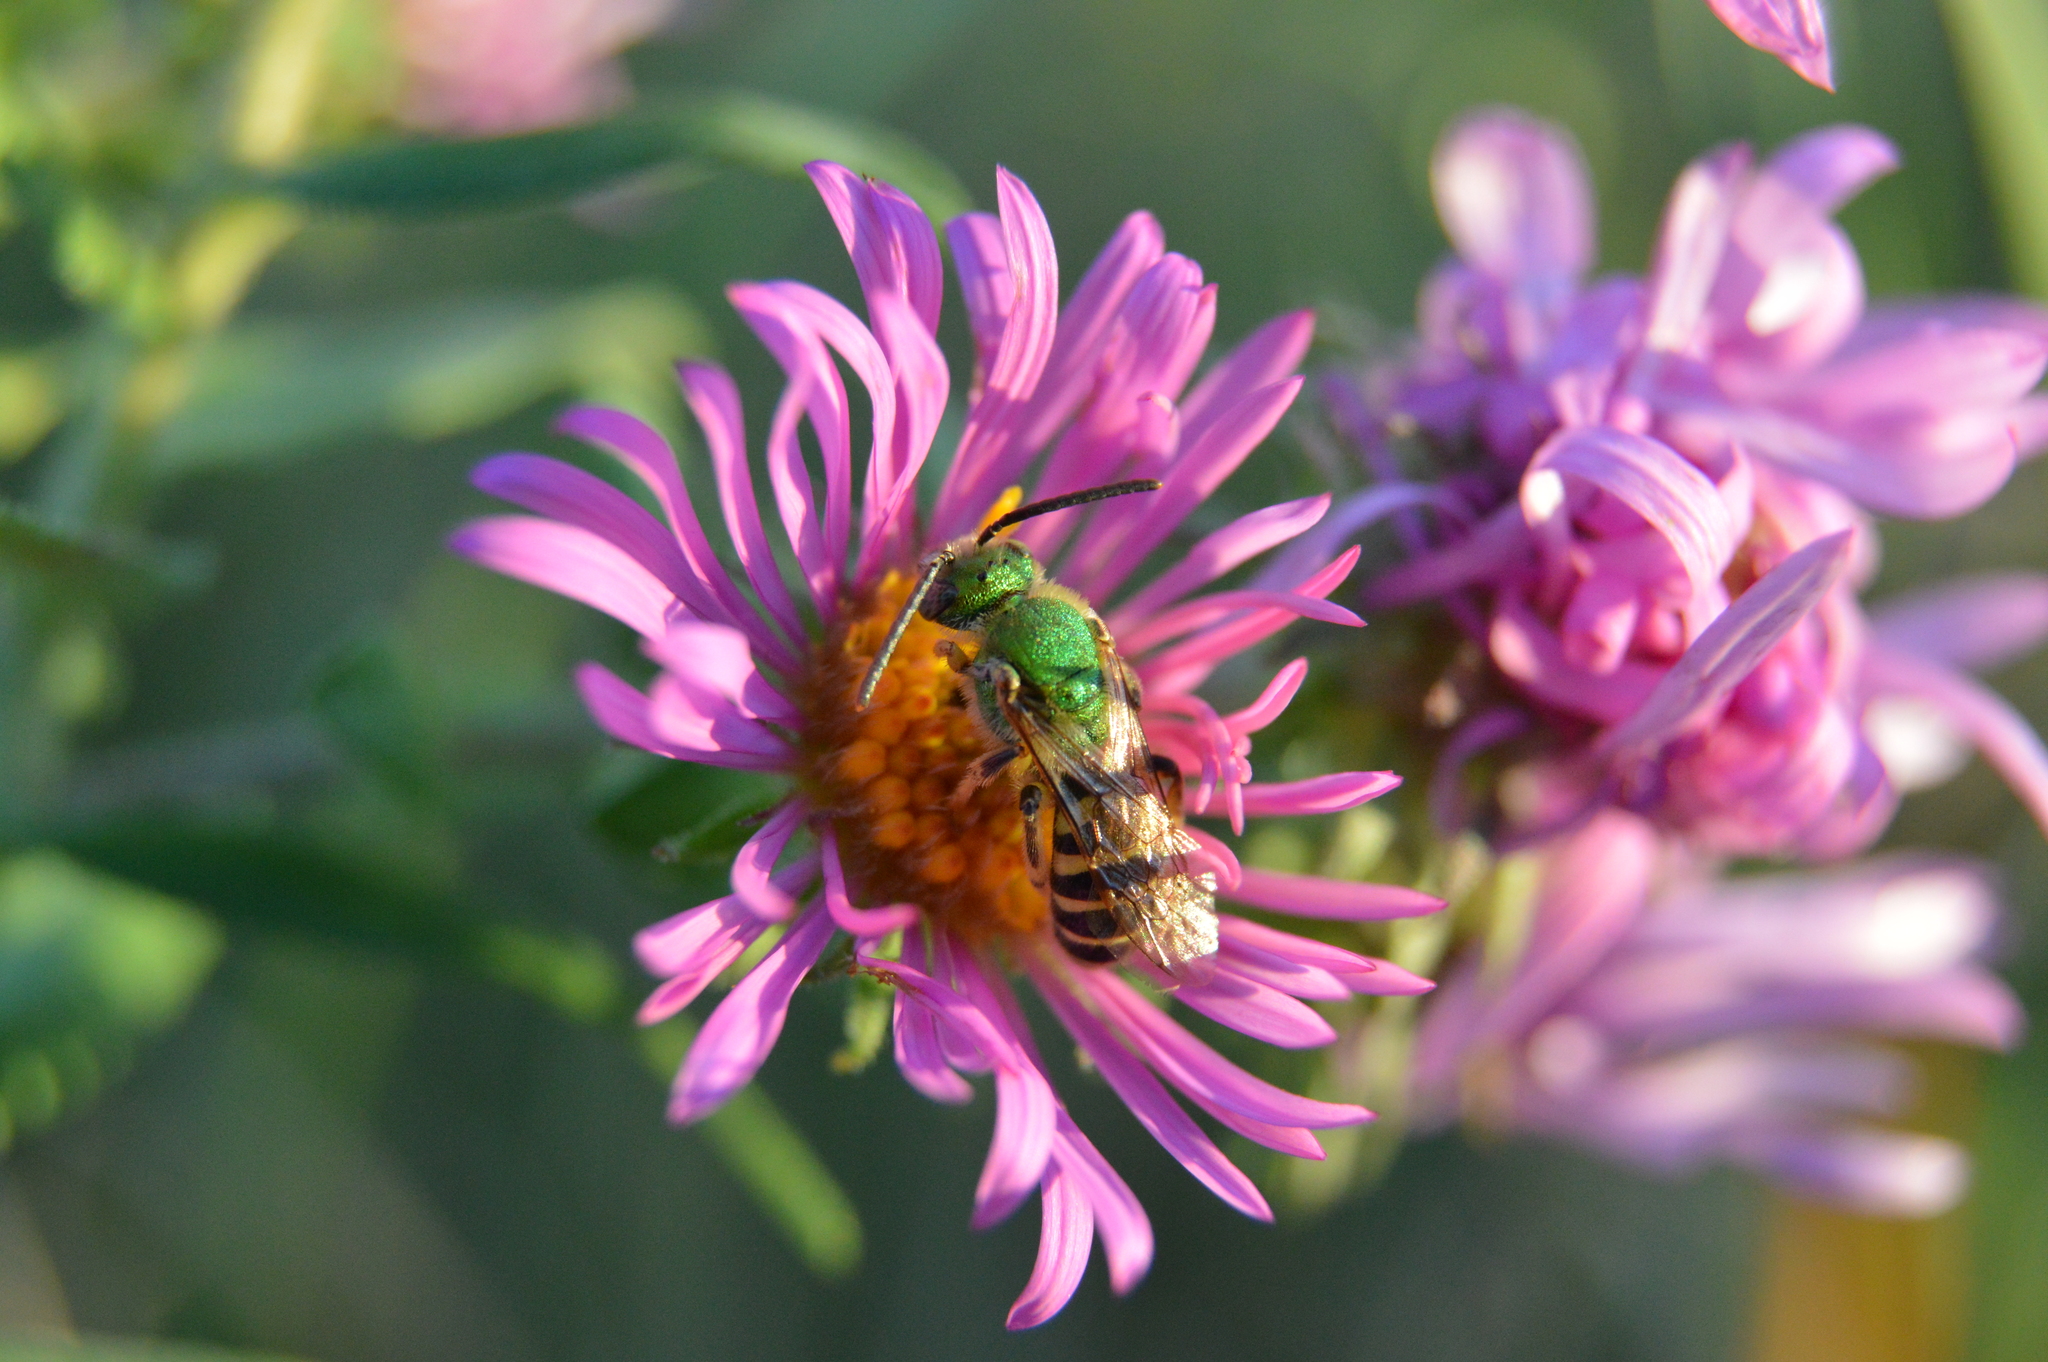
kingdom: Animalia
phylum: Arthropoda
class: Insecta
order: Hymenoptera
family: Halictidae
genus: Agapostemon
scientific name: Agapostemon
